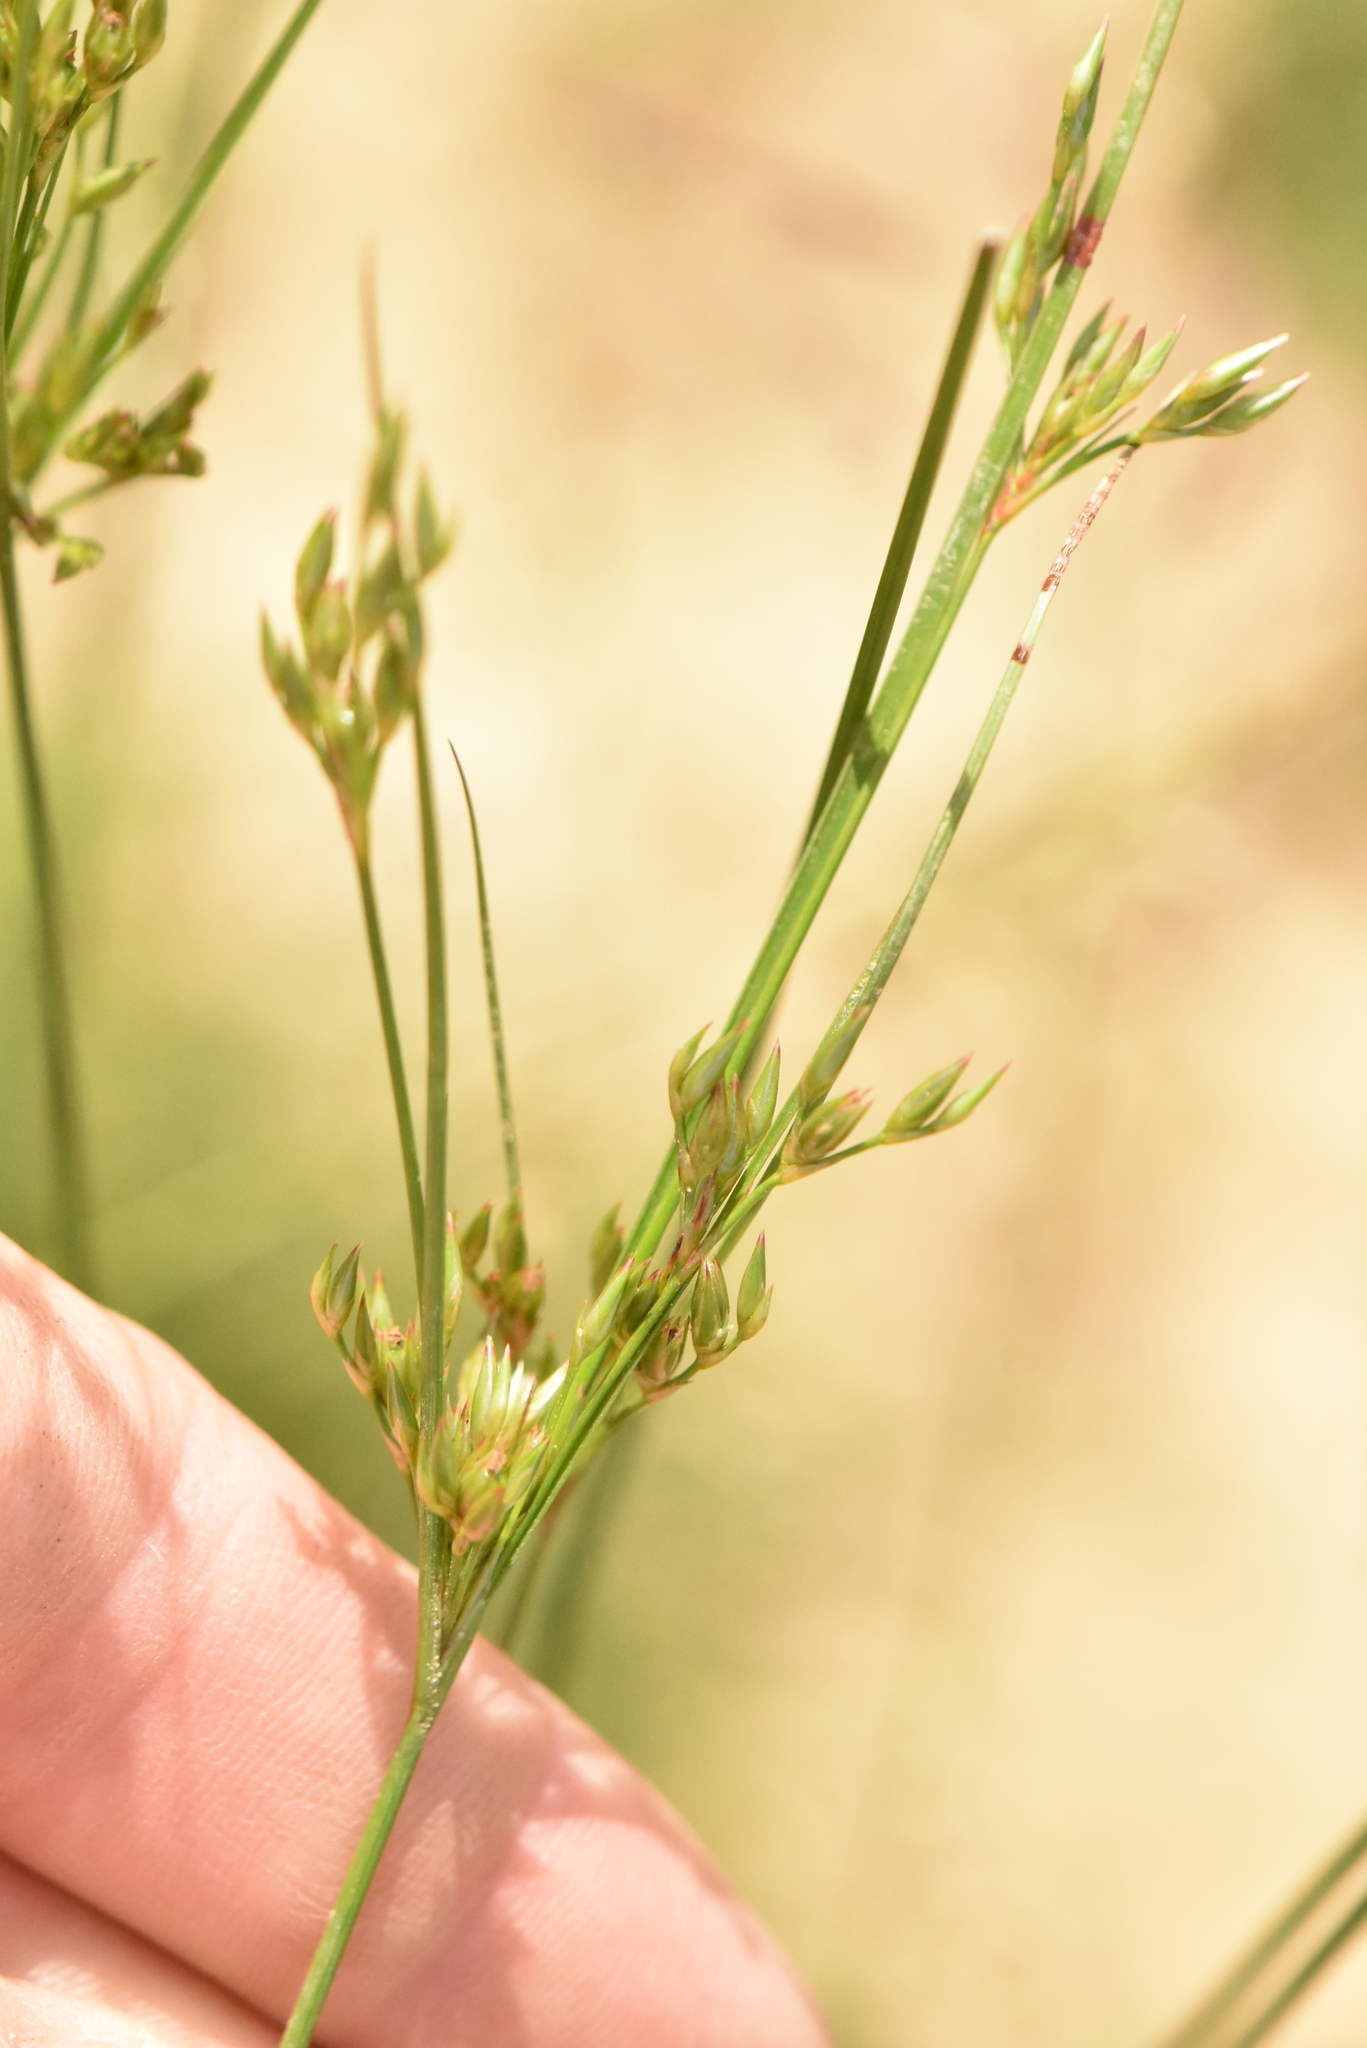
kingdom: Plantae
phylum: Tracheophyta
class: Liliopsida
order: Poales
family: Juncaceae
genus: Juncus
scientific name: Juncus tenuis
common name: Slender rush
